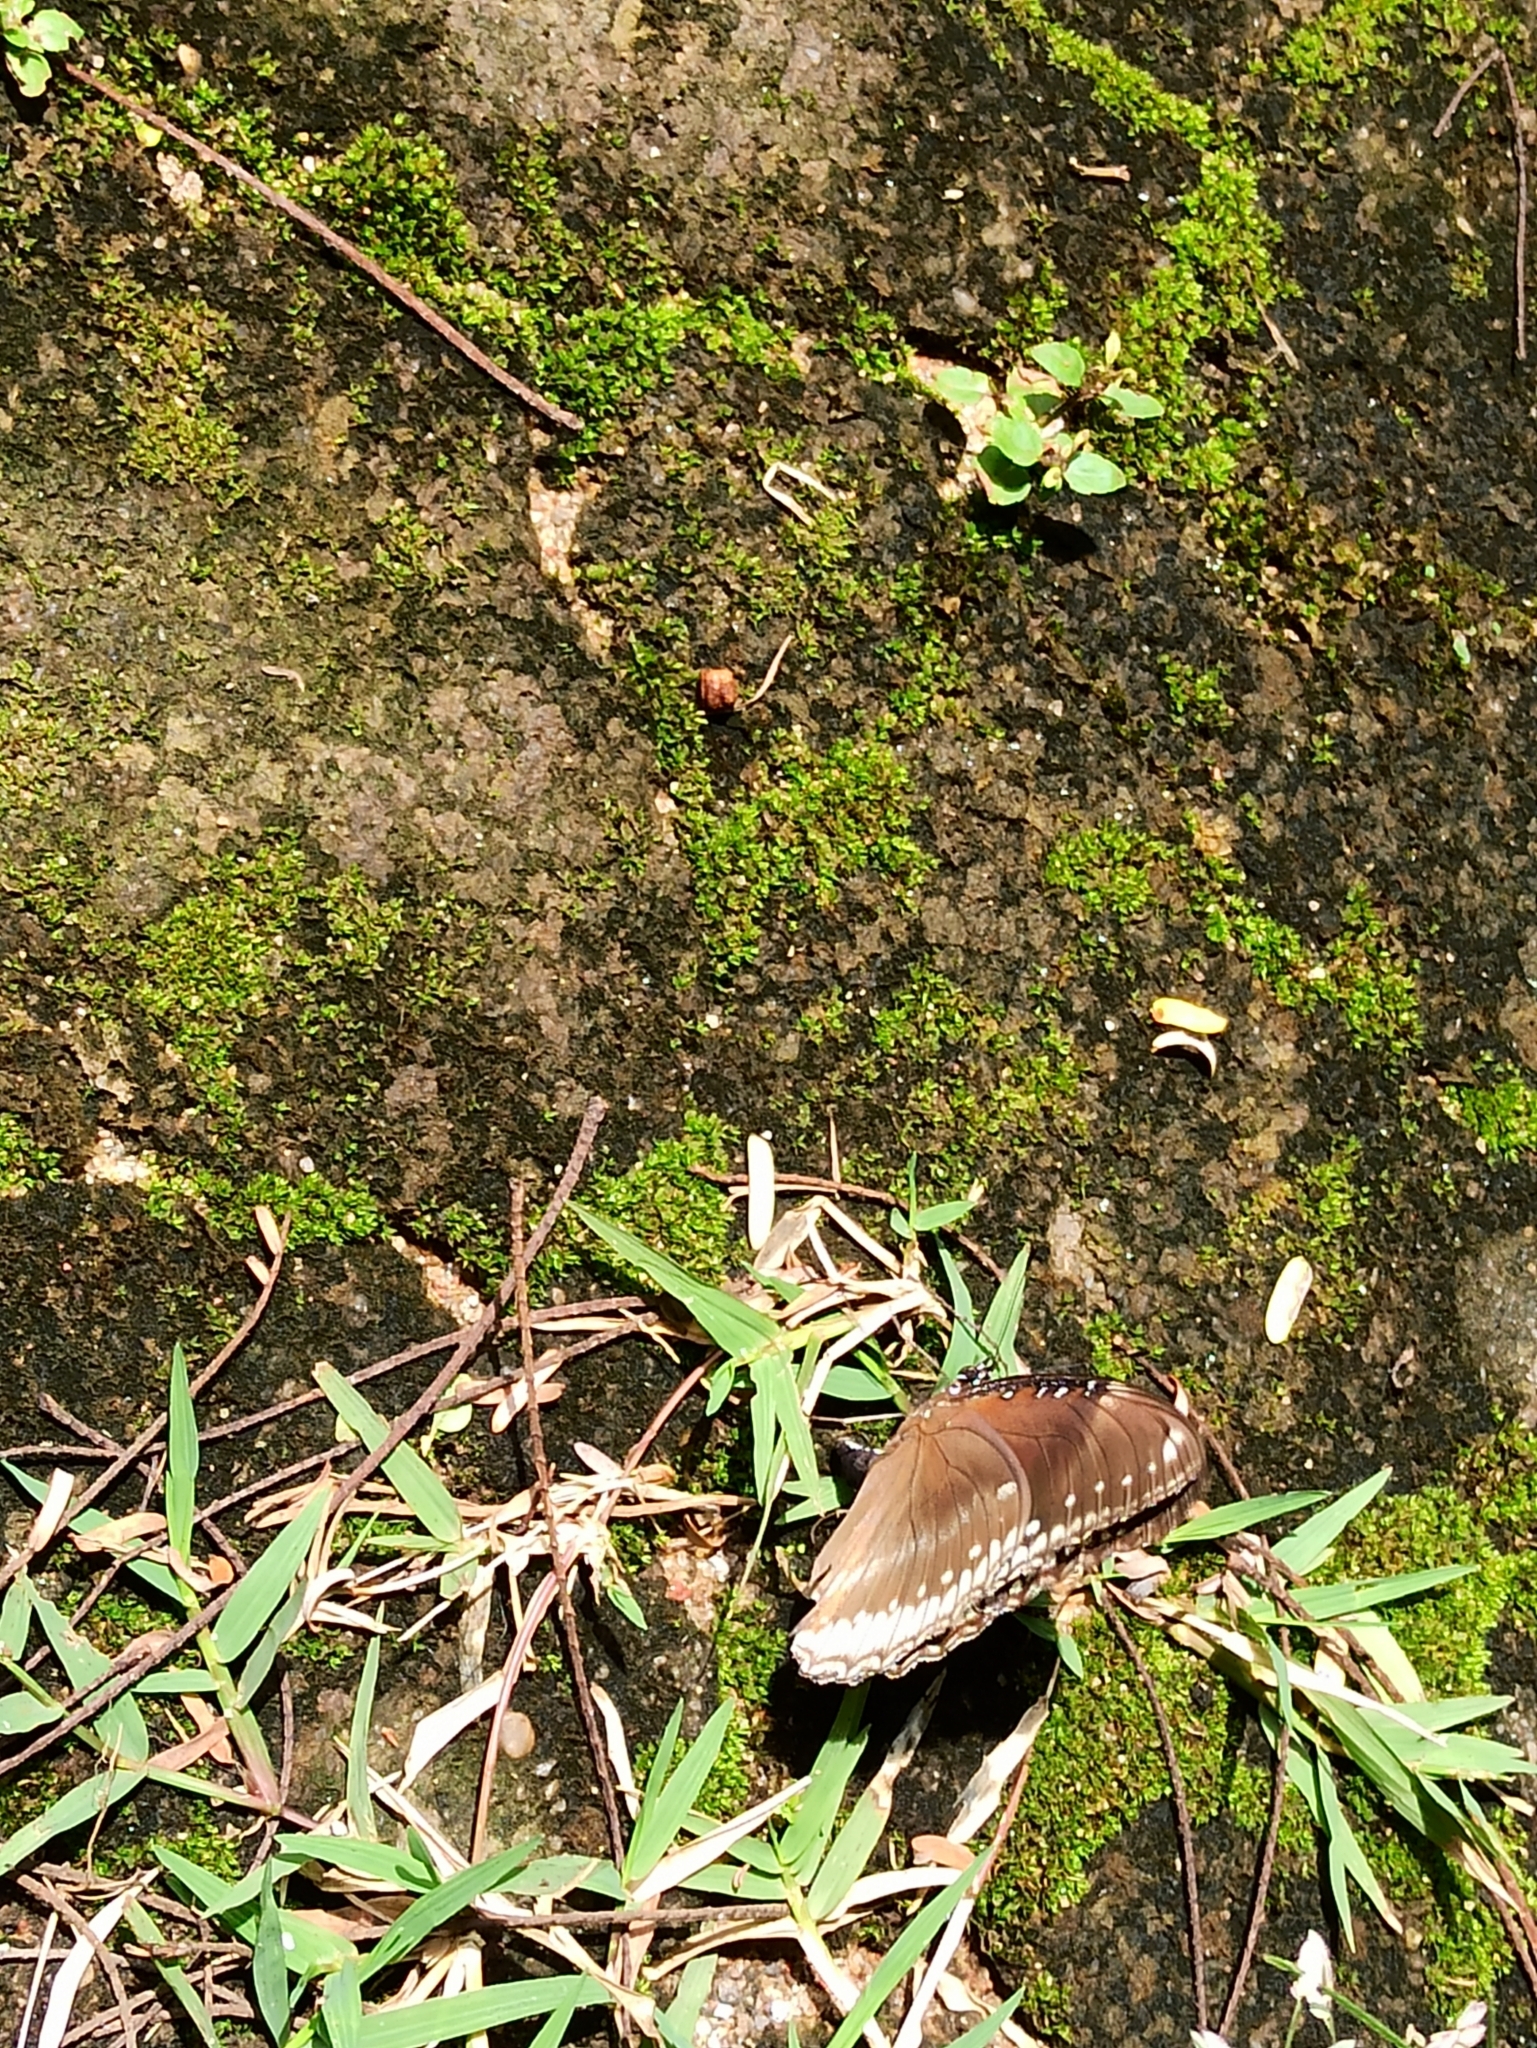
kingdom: Animalia
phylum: Arthropoda
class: Insecta
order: Lepidoptera
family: Nymphalidae
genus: Hypolimnas
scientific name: Hypolimnas bolina
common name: Great eggfly
